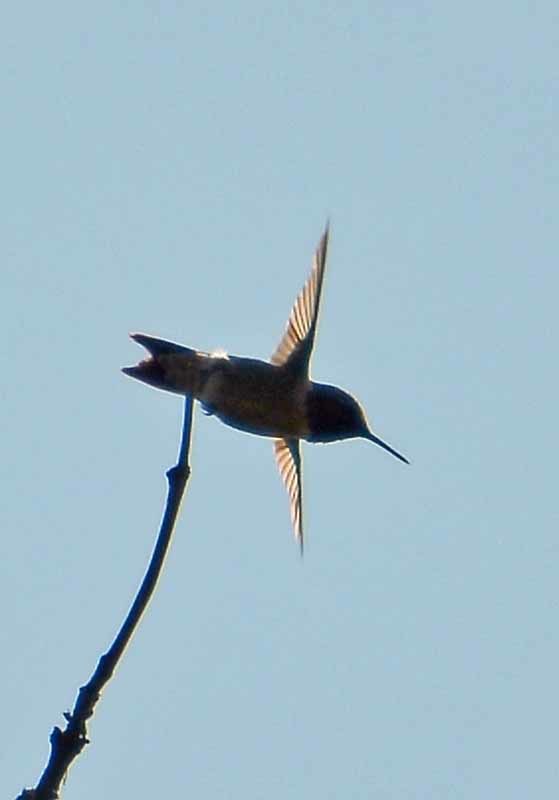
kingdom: Animalia
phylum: Chordata
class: Aves
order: Apodiformes
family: Trochilidae
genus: Archilochus
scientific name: Archilochus colubris
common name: Ruby-throated hummingbird
